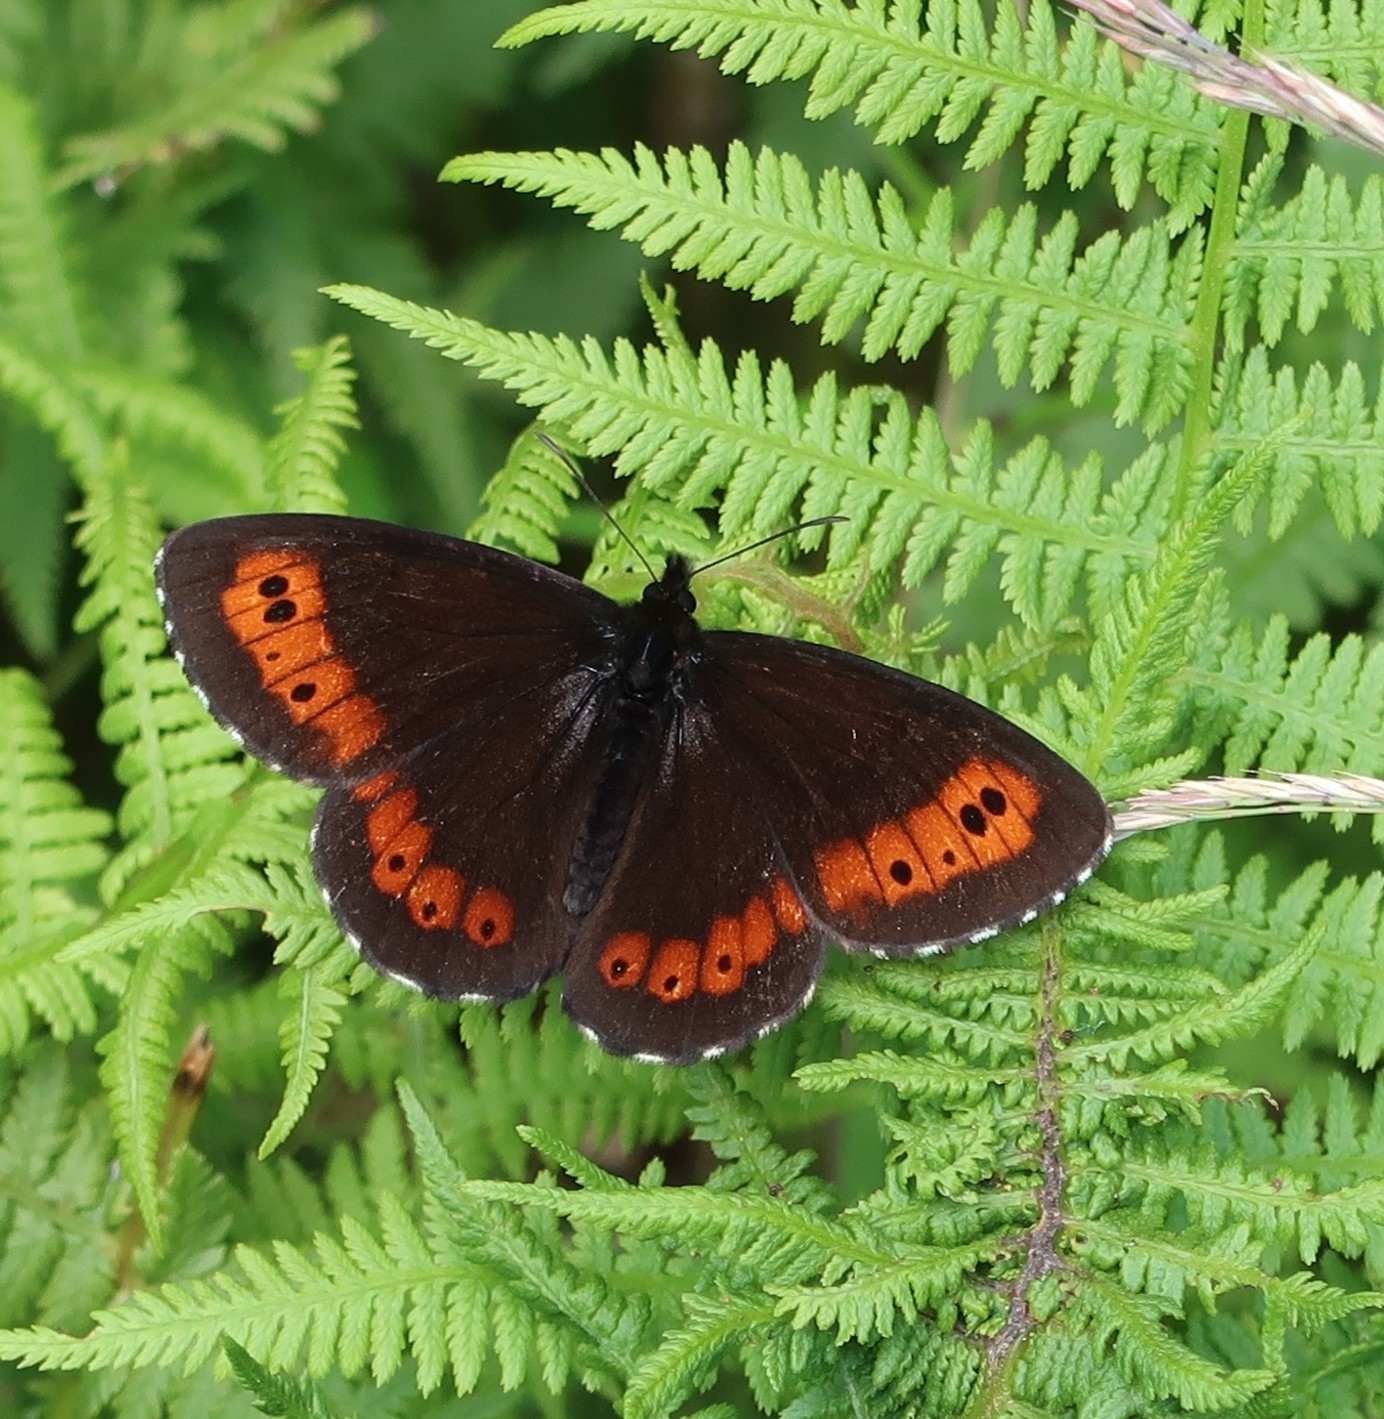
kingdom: Animalia
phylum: Arthropoda
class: Insecta
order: Lepidoptera
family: Nymphalidae
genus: Erebia
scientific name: Erebia ligea
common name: Arran brown
